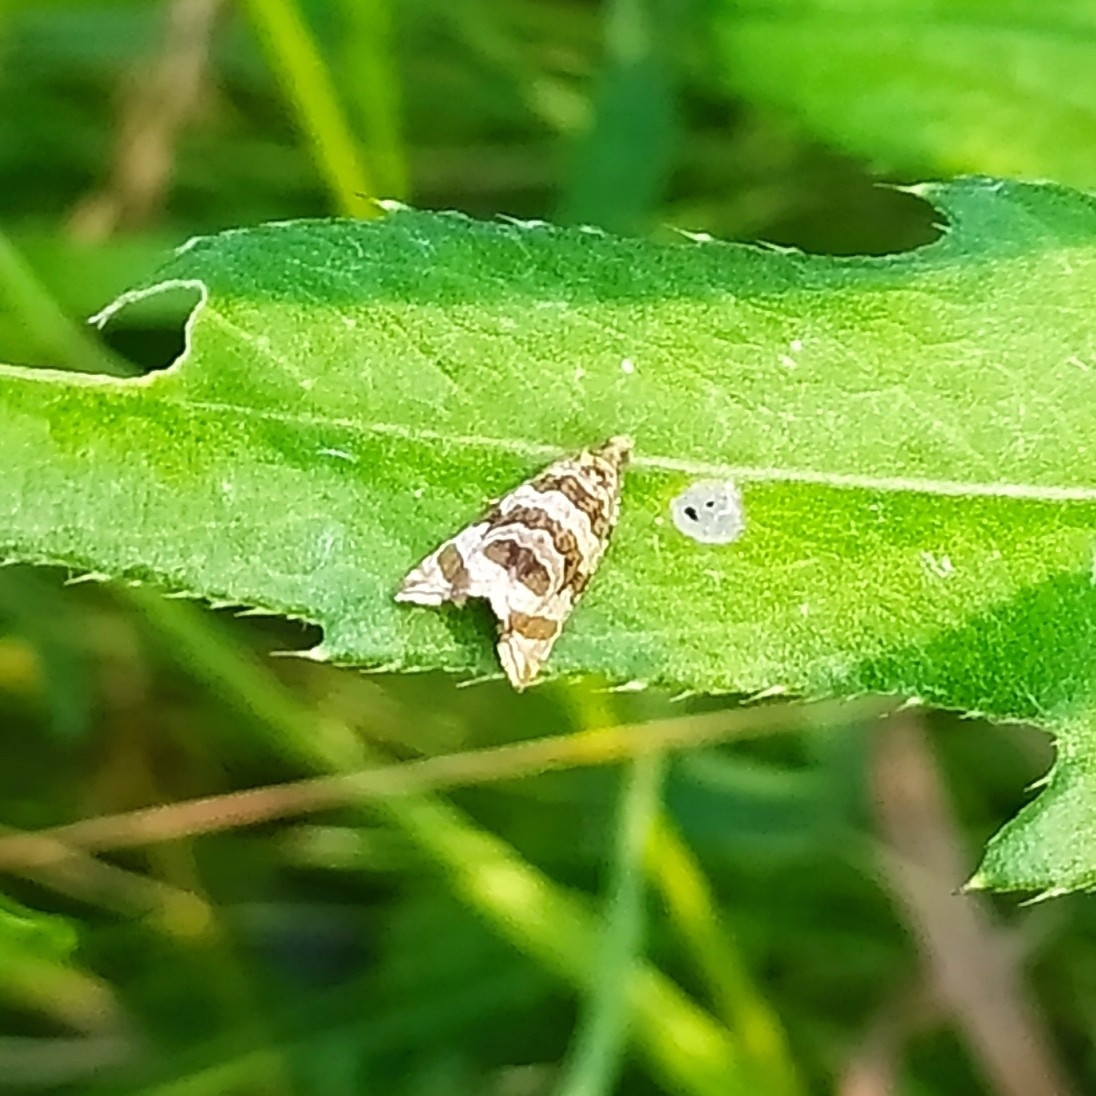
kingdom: Animalia
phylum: Arthropoda
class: Insecta
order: Lepidoptera
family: Tortricidae
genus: Syricoris
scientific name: Syricoris rivulana
